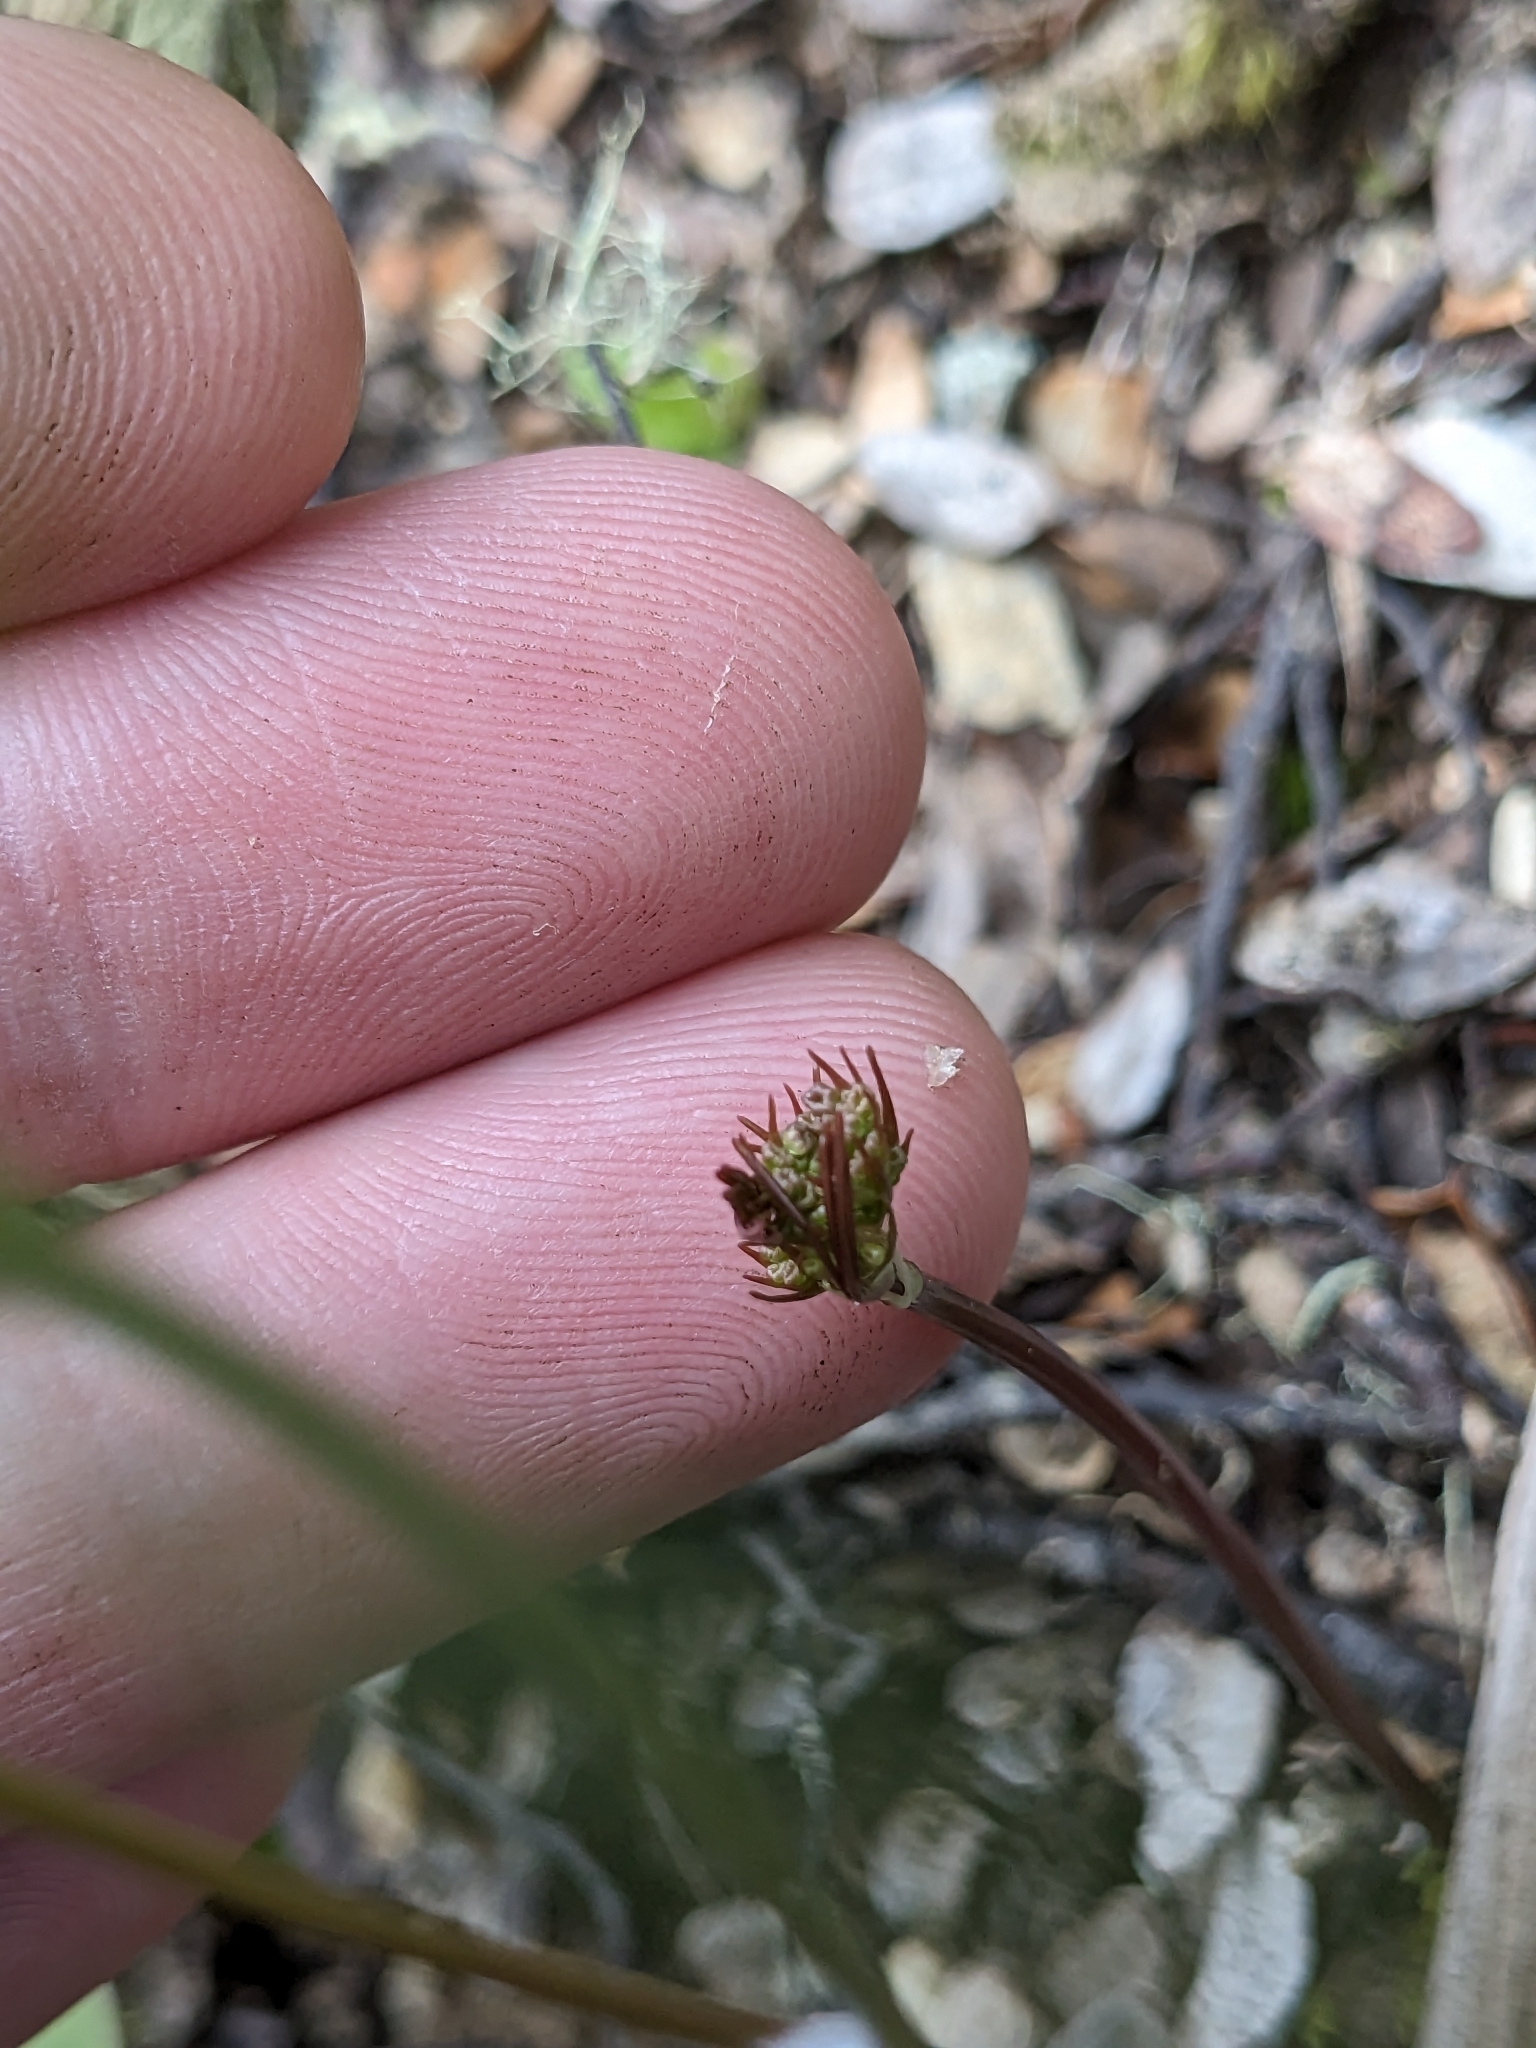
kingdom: Plantae
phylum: Tracheophyta
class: Magnoliopsida
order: Apiales
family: Apiaceae
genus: Anisotome
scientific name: Anisotome filifolia
